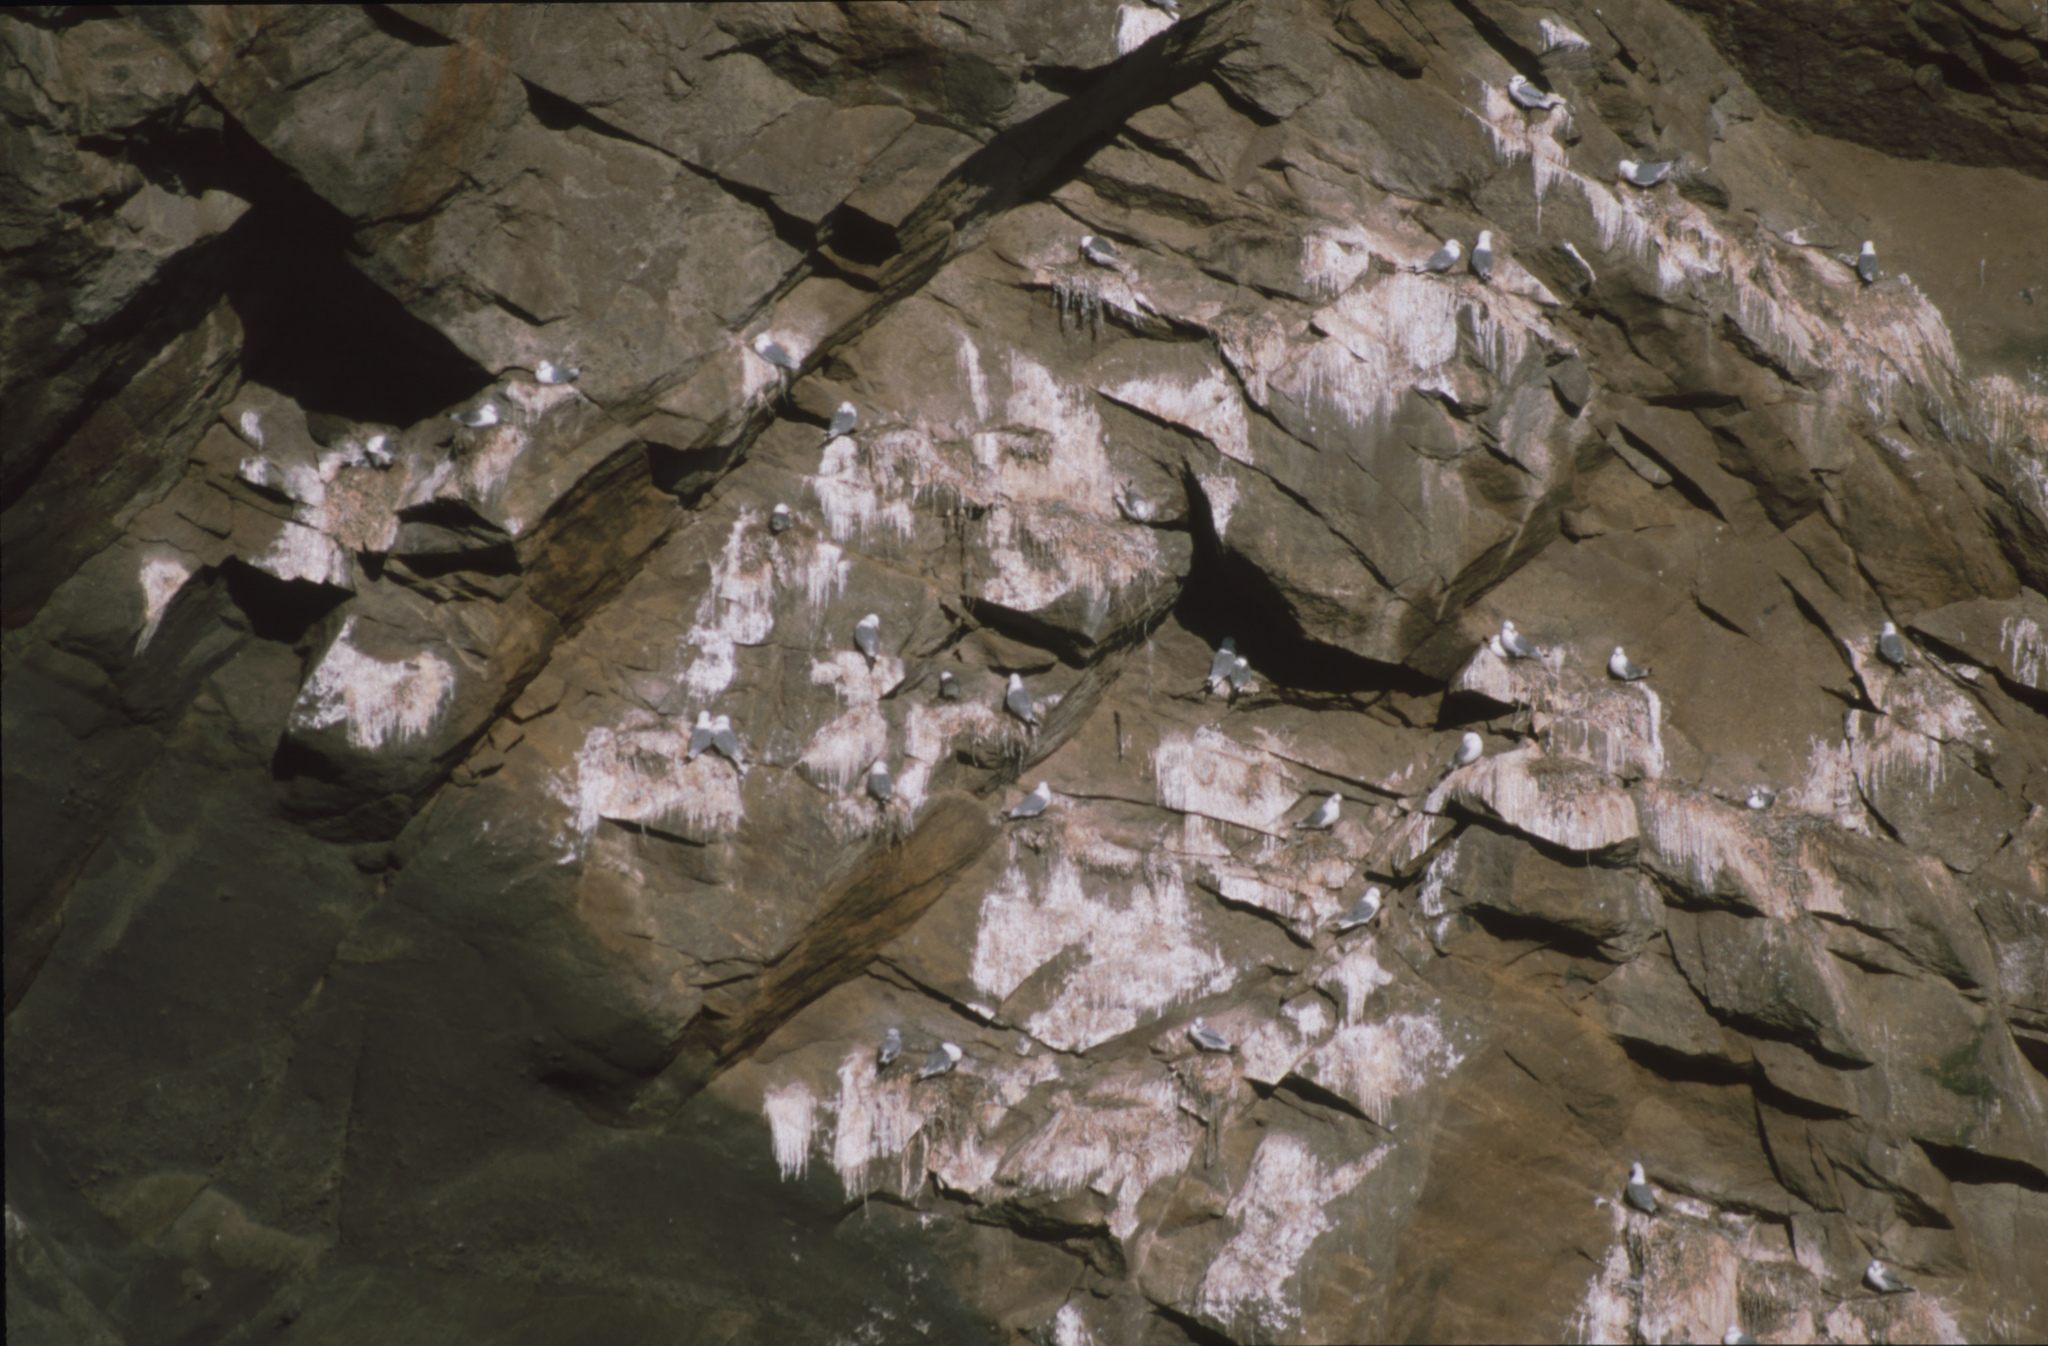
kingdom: Animalia
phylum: Chordata
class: Aves
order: Charadriiformes
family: Laridae
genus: Rissa
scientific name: Rissa tridactyla
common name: Black-legged kittiwake
